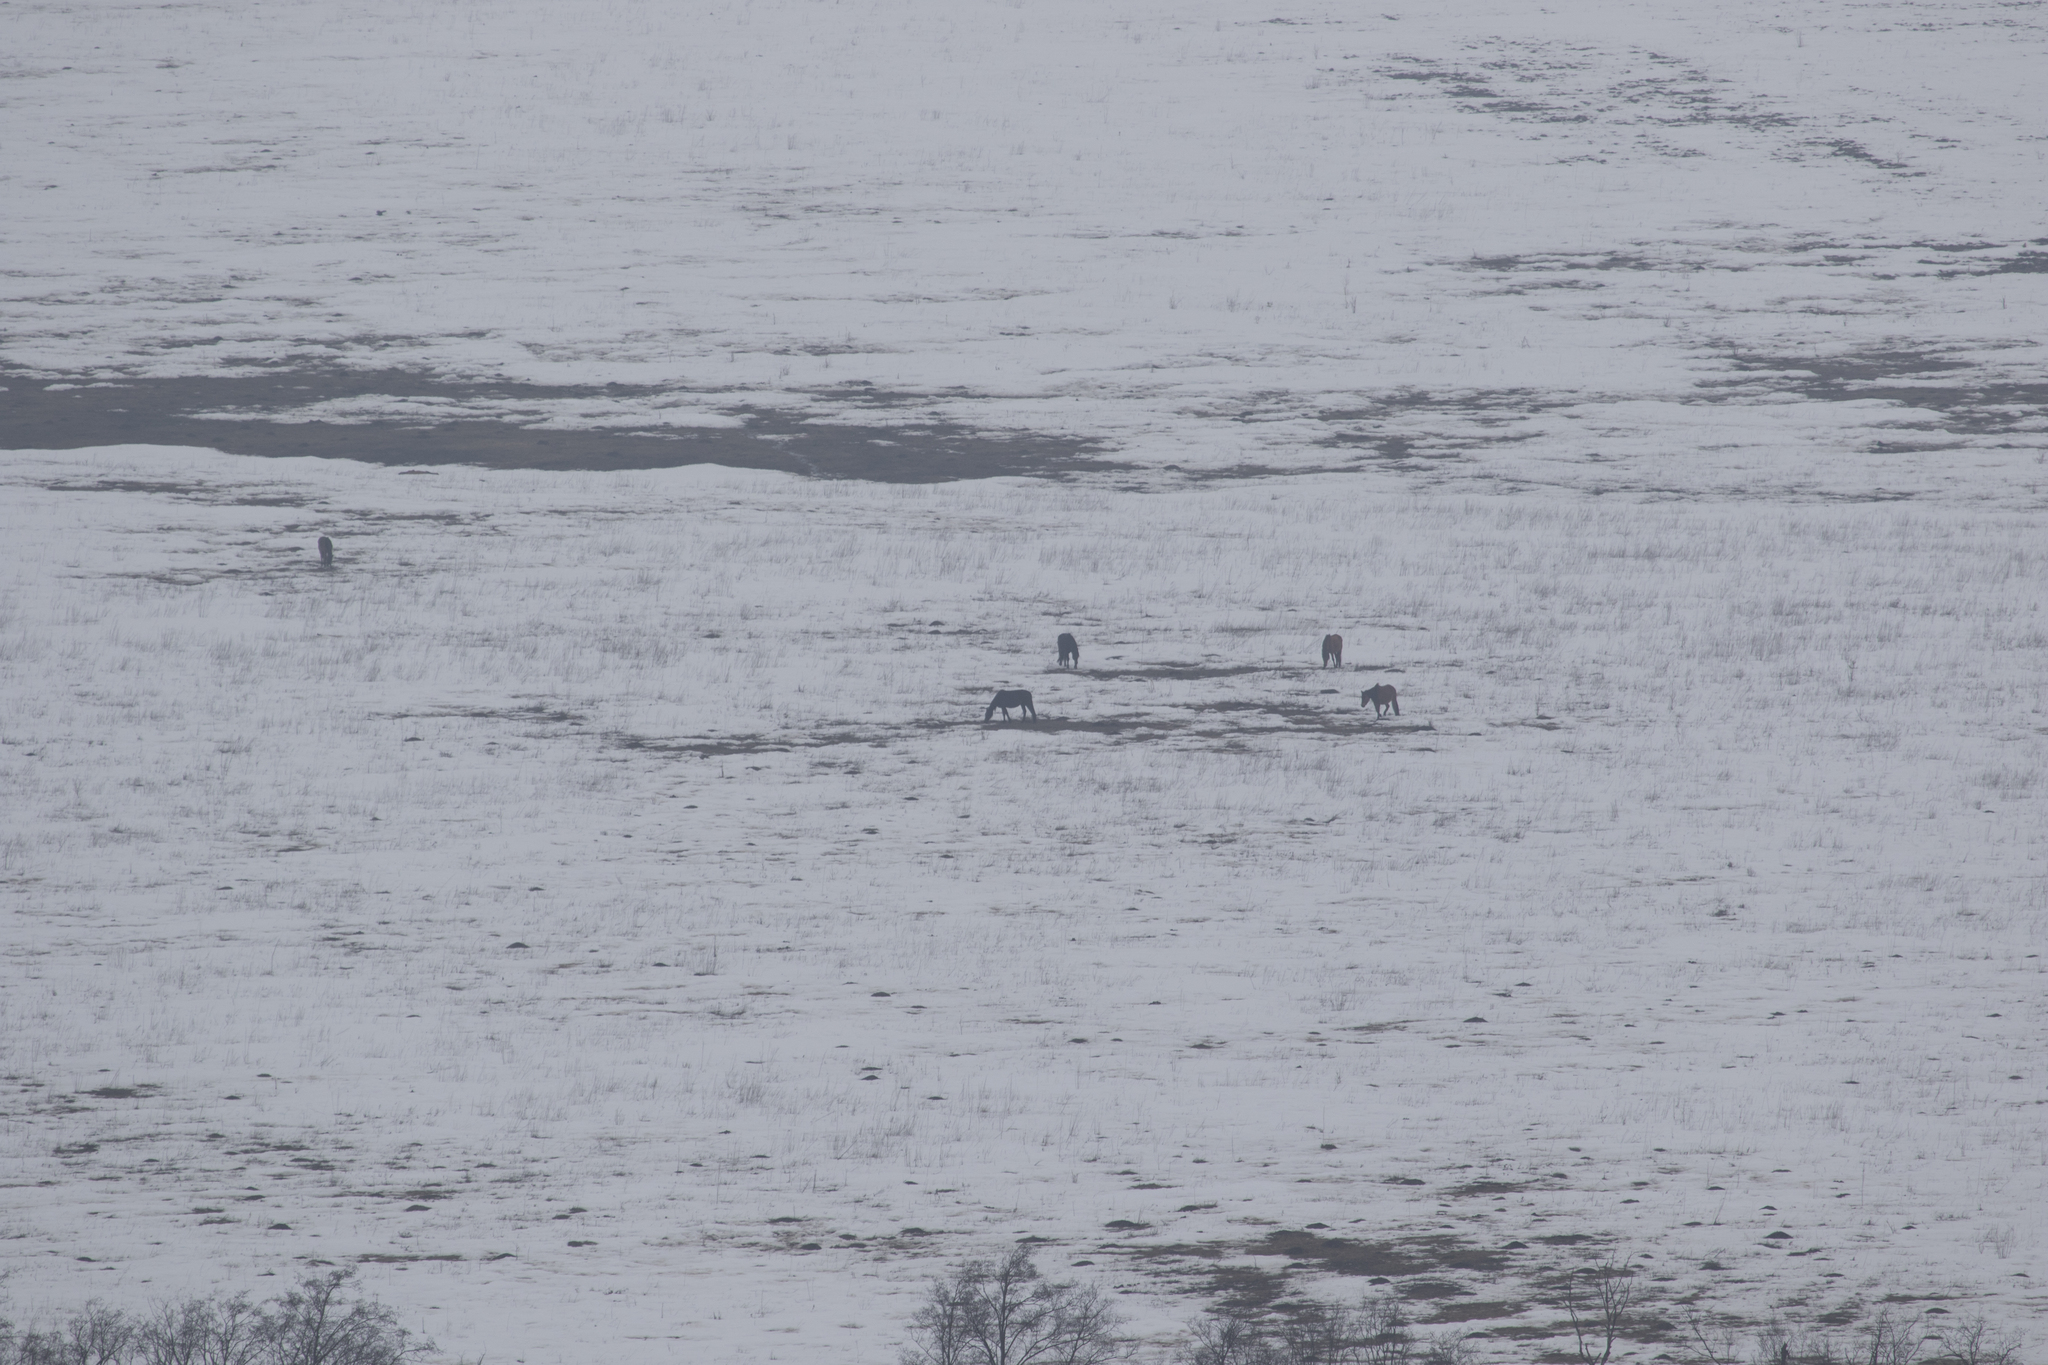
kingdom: Animalia
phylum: Chordata
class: Mammalia
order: Perissodactyla
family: Equidae
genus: Equus
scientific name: Equus caballus
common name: Horse
